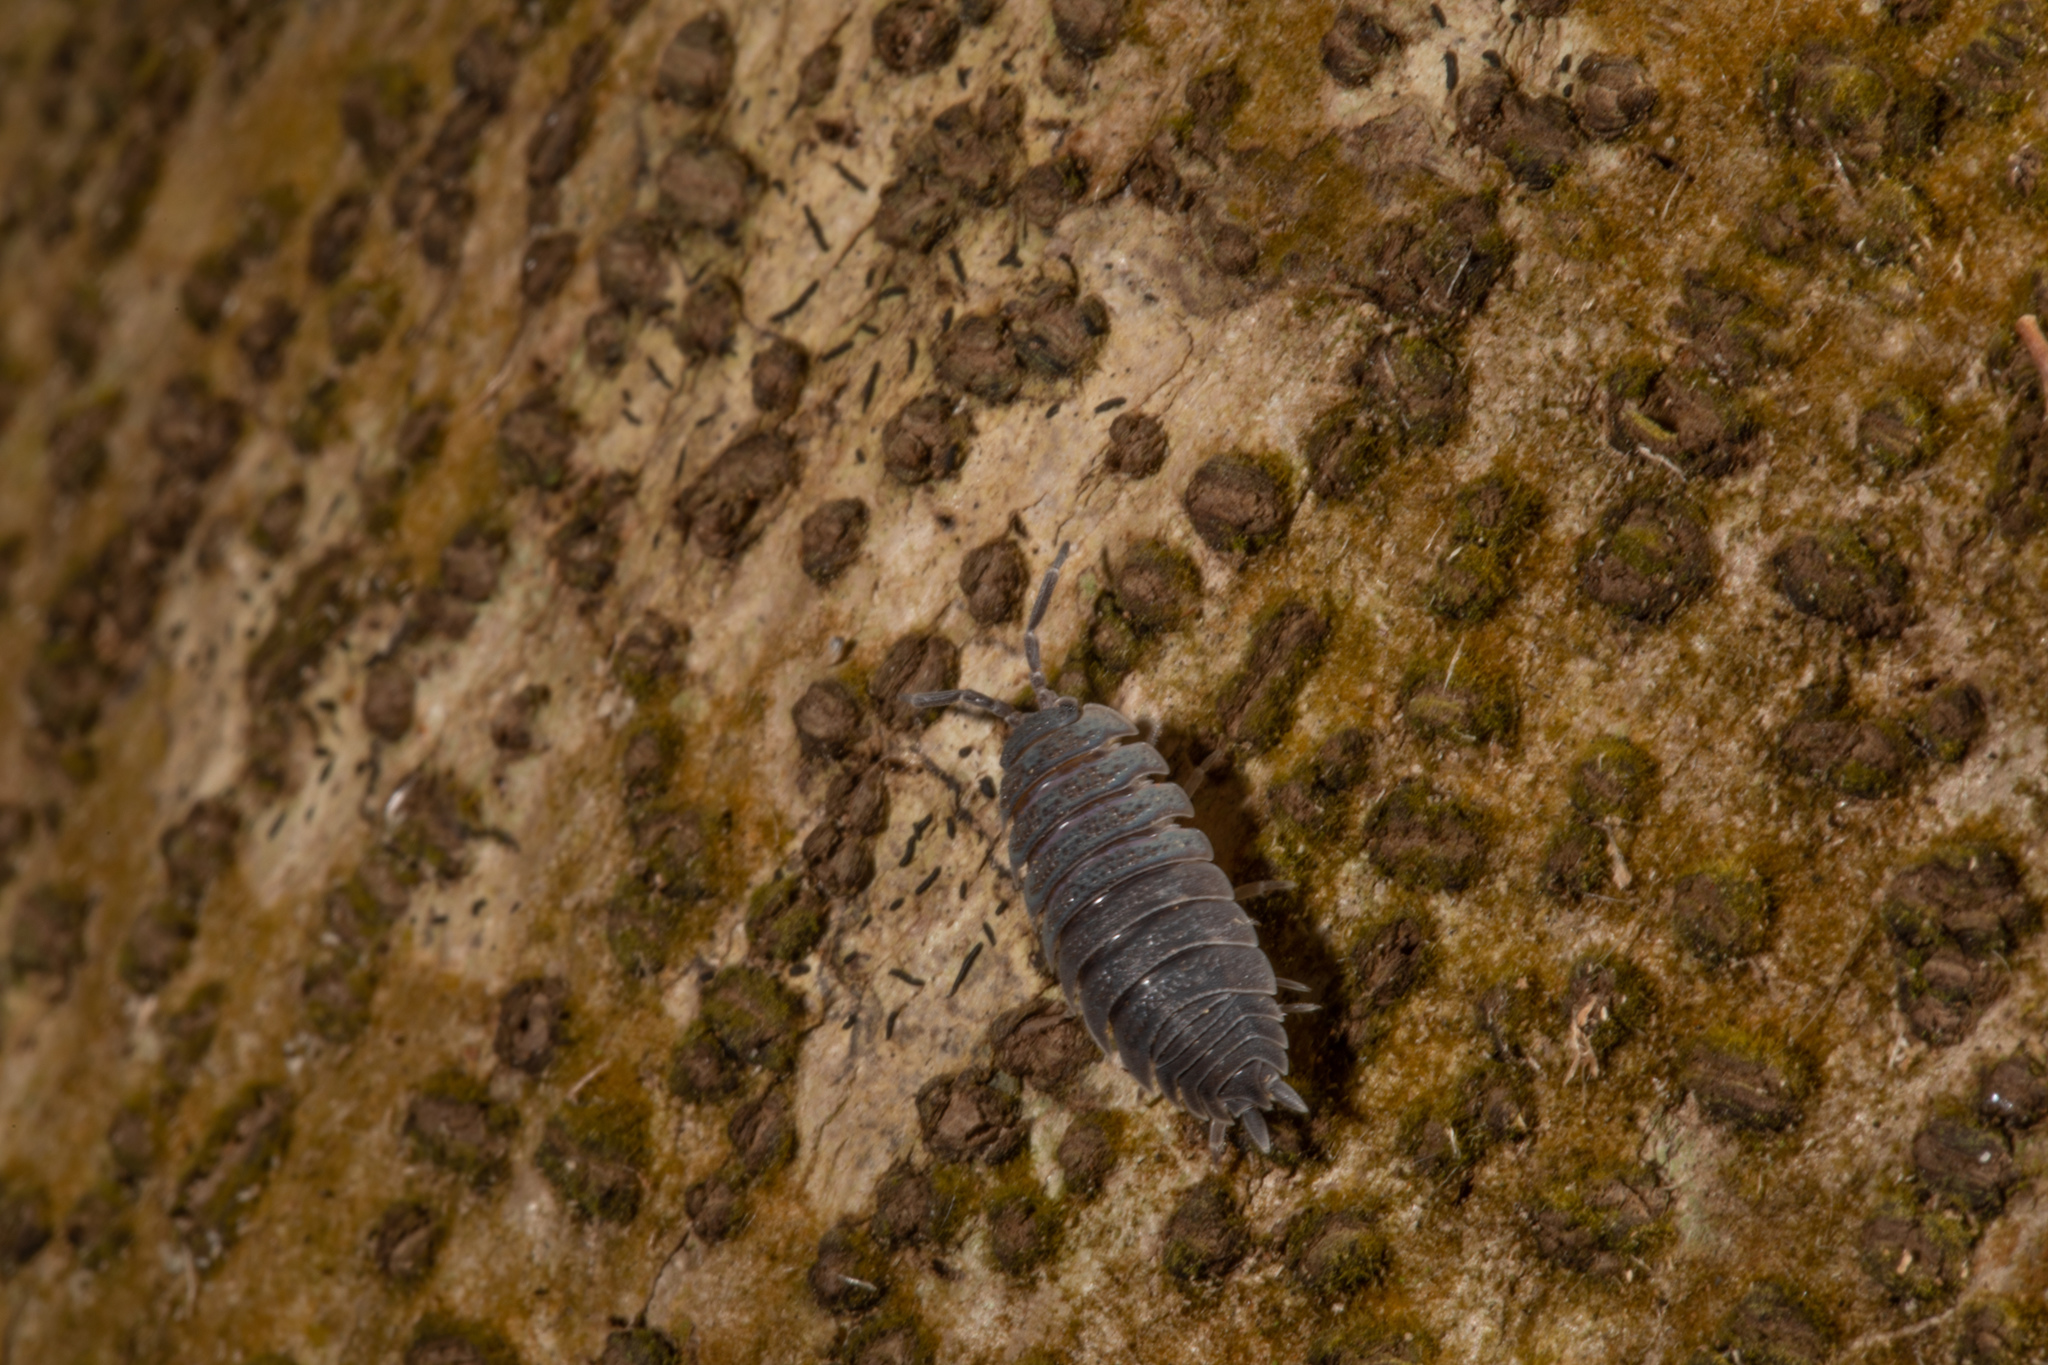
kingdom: Animalia
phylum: Arthropoda
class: Malacostraca
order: Isopoda
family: Porcellionidae
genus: Porcellio
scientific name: Porcellio scaber
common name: Common rough woodlouse
